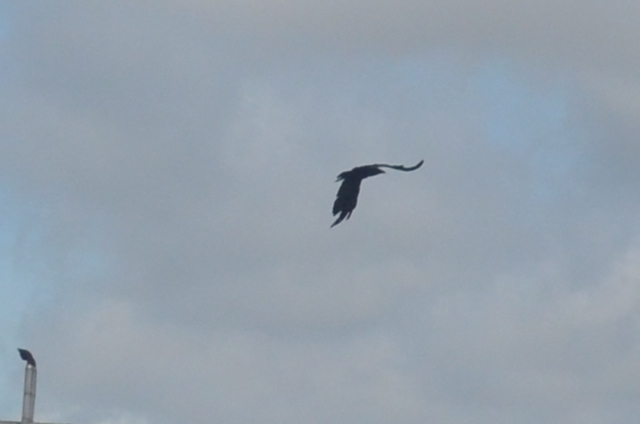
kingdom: Animalia
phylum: Chordata
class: Aves
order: Passeriformes
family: Corvidae
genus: Corvus
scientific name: Corvus macrorhynchos
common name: Large-billed crow
